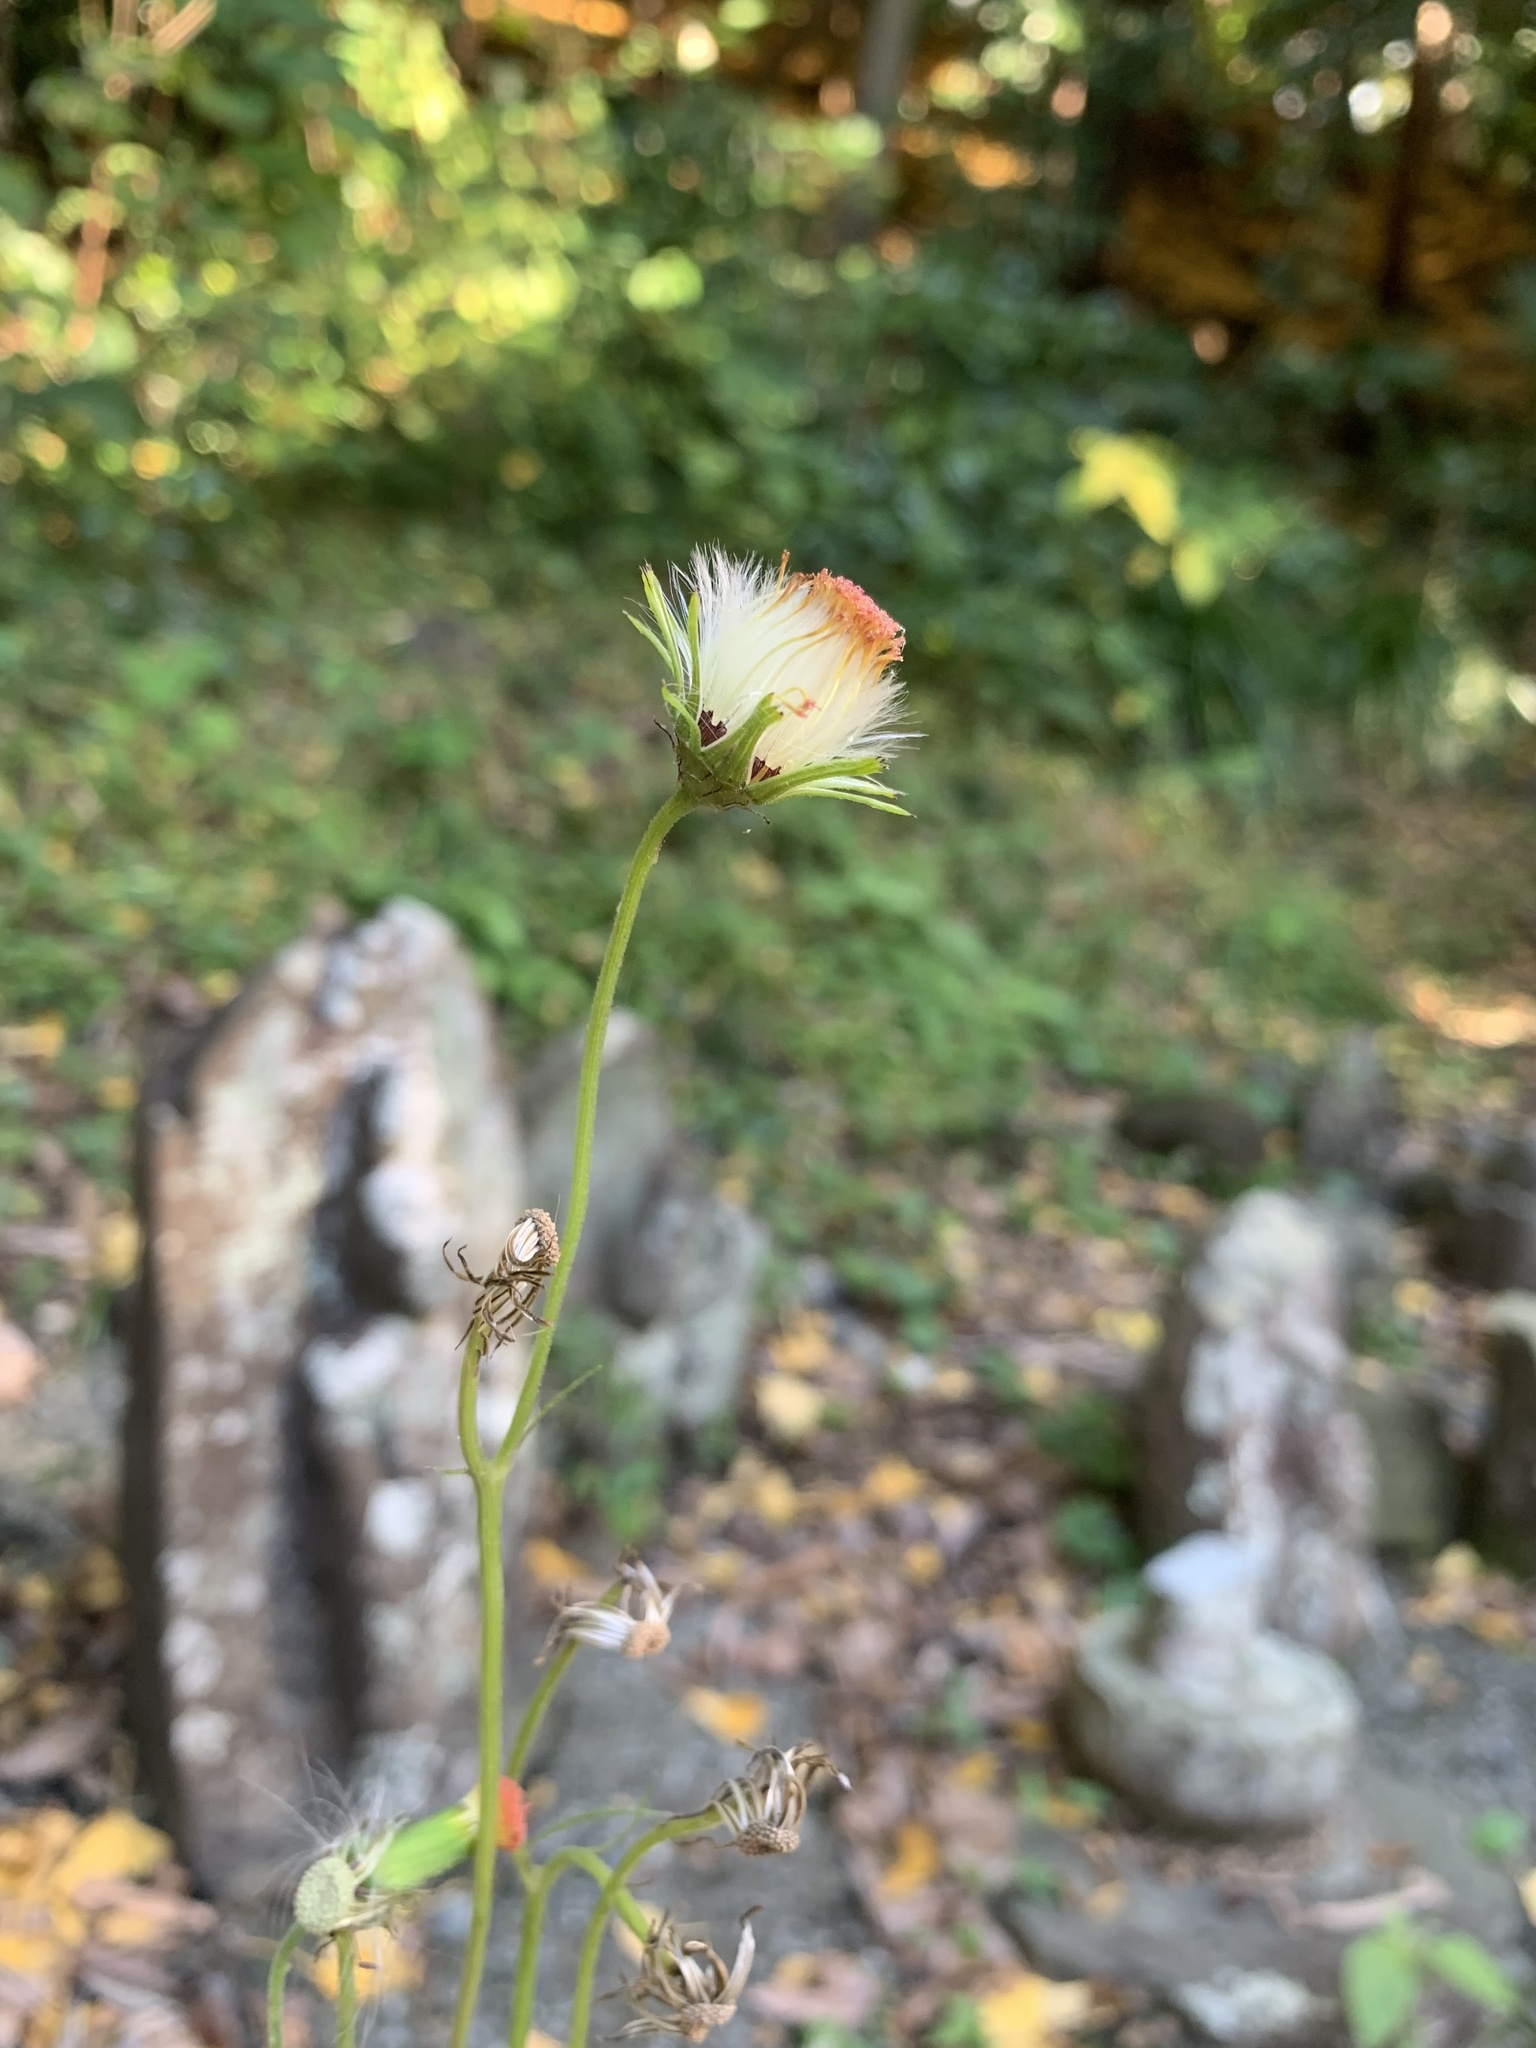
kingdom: Plantae
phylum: Tracheophyta
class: Magnoliopsida
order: Asterales
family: Asteraceae
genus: Crassocephalum
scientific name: Crassocephalum crepidioides
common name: Redflower ragleaf
